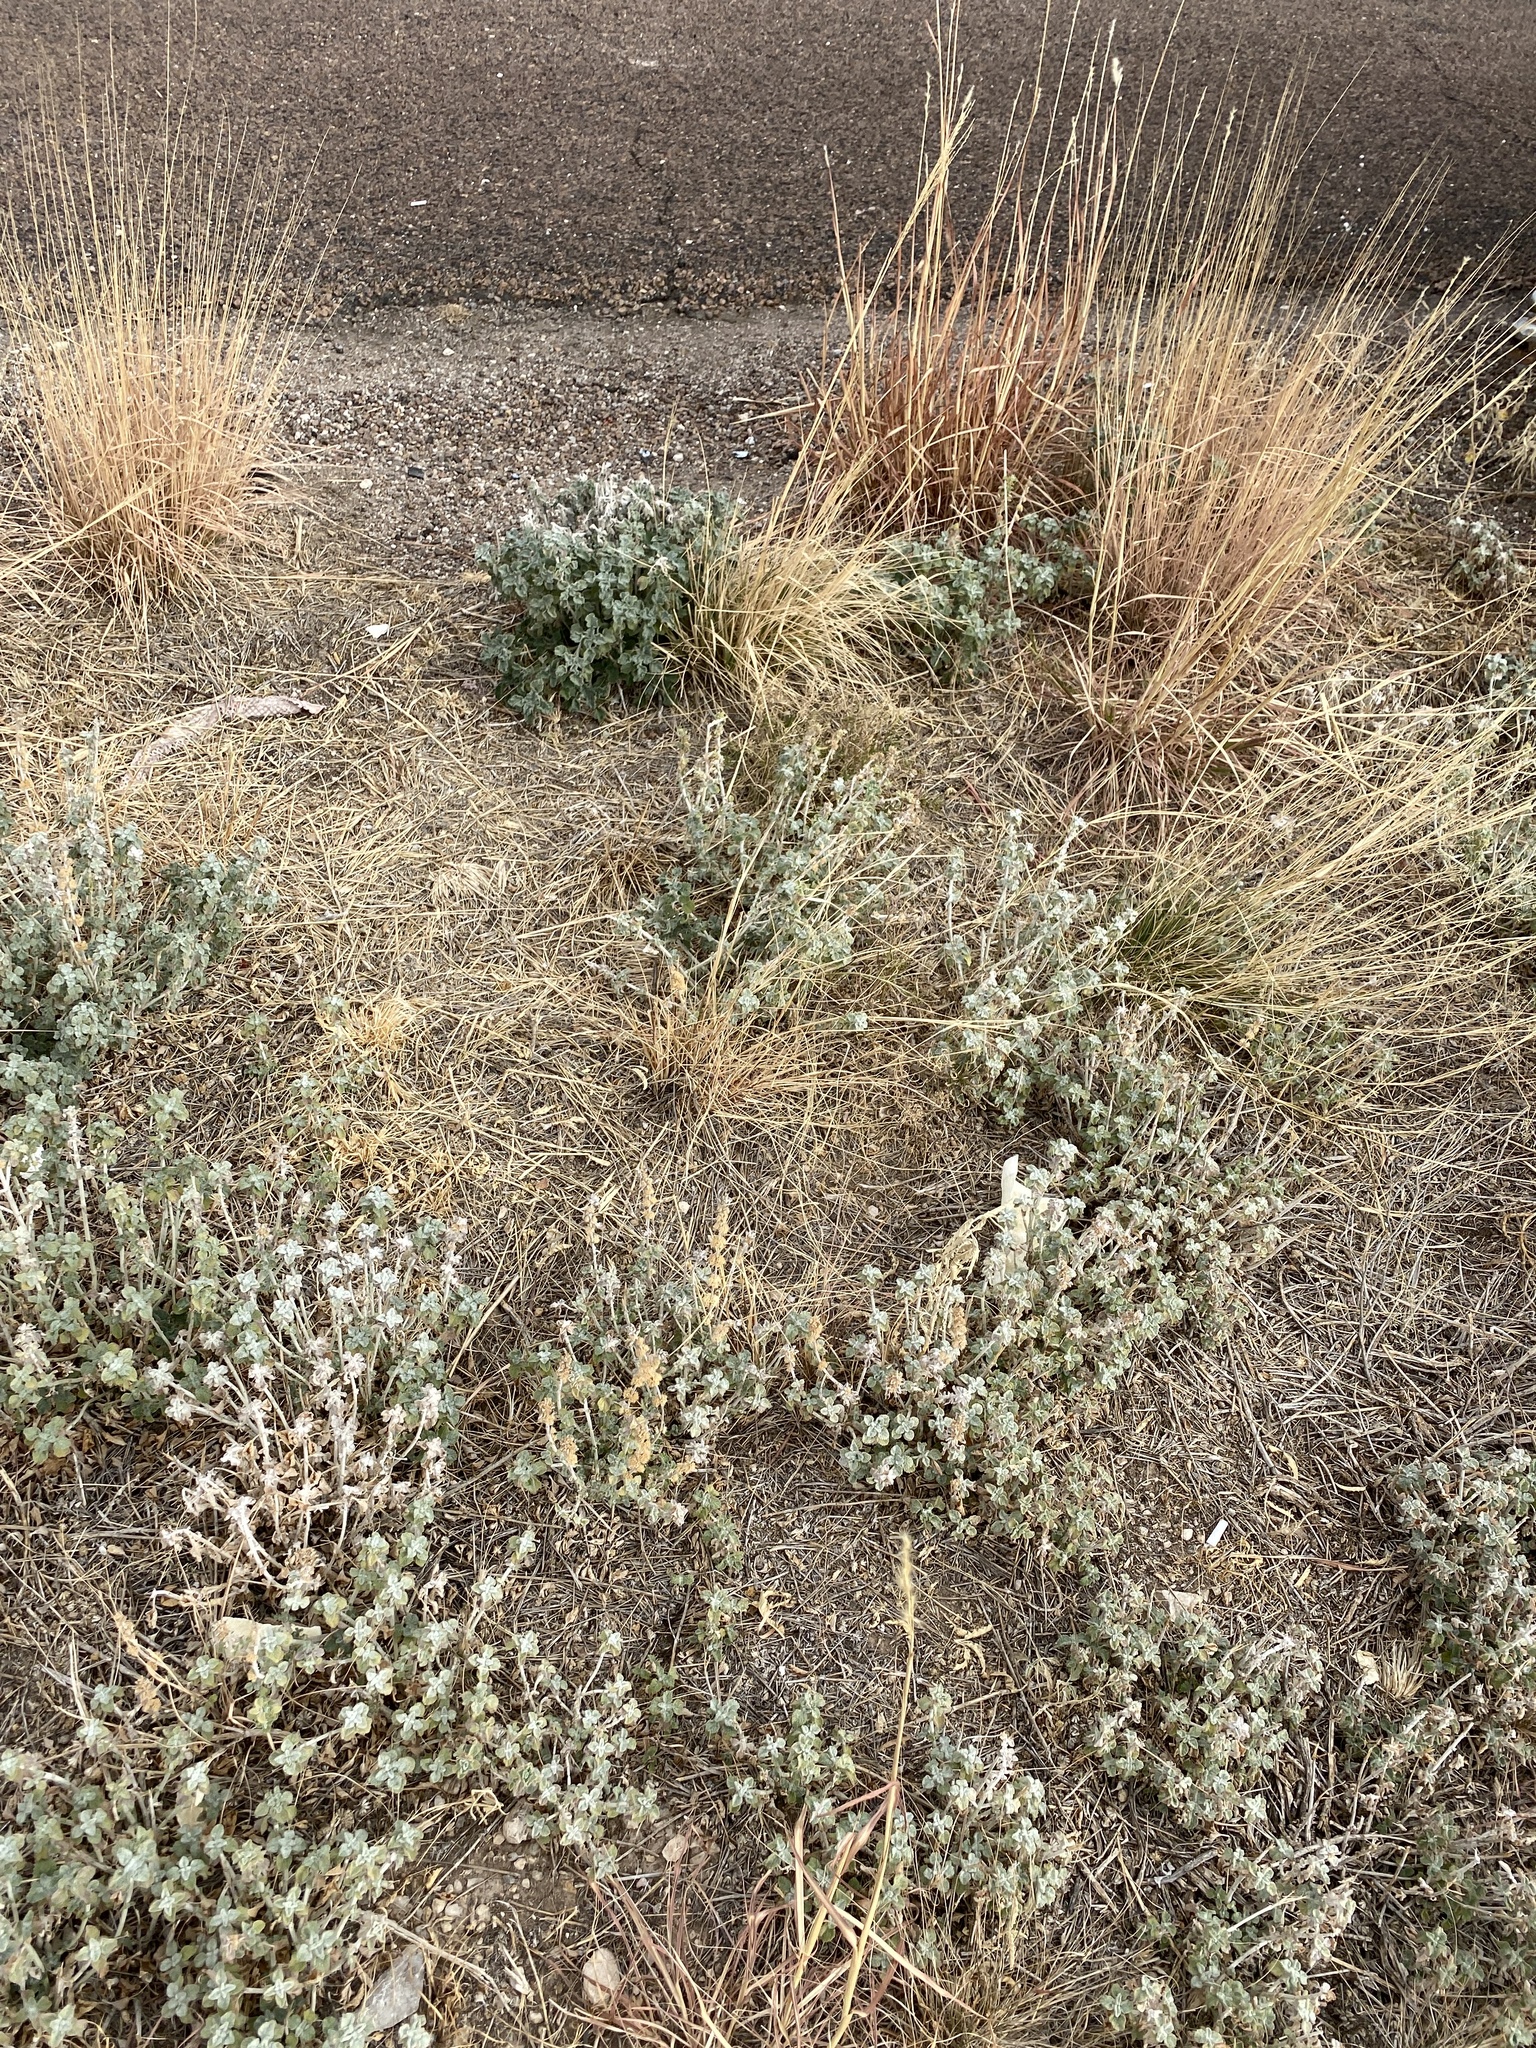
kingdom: Plantae
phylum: Tracheophyta
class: Magnoliopsida
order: Lamiales
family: Lamiaceae
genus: Marrubium
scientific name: Marrubium vulgare
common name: Horehound
